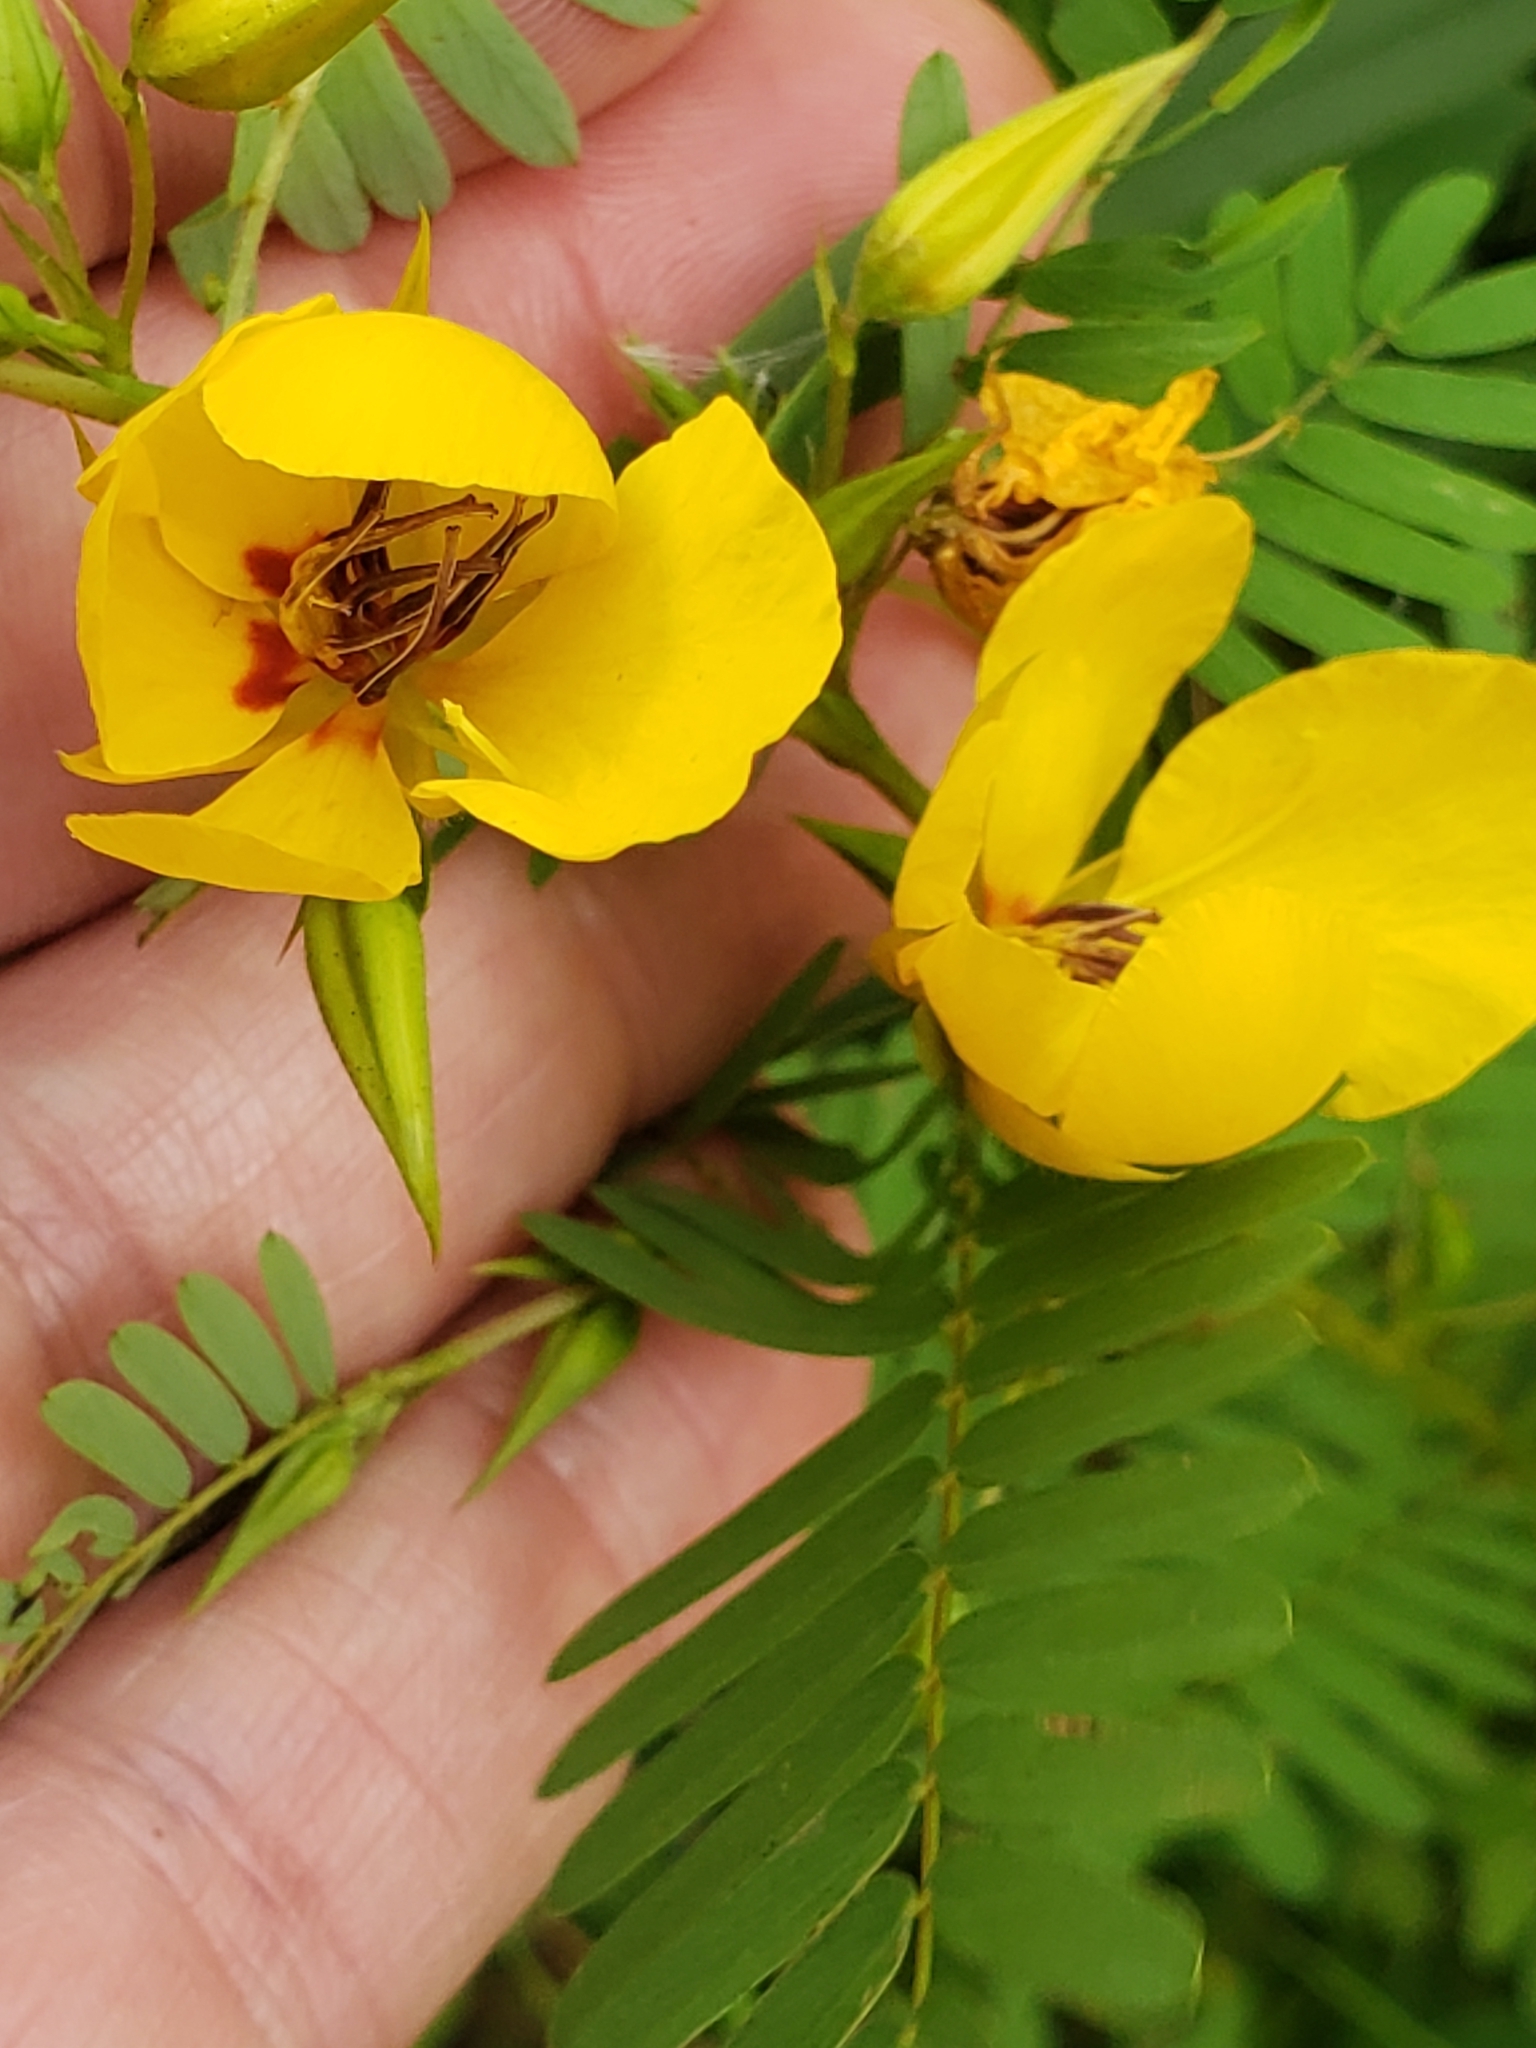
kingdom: Plantae
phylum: Tracheophyta
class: Magnoliopsida
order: Fabales
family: Fabaceae
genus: Chamaecrista
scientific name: Chamaecrista fasciculata
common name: Golden cassia
